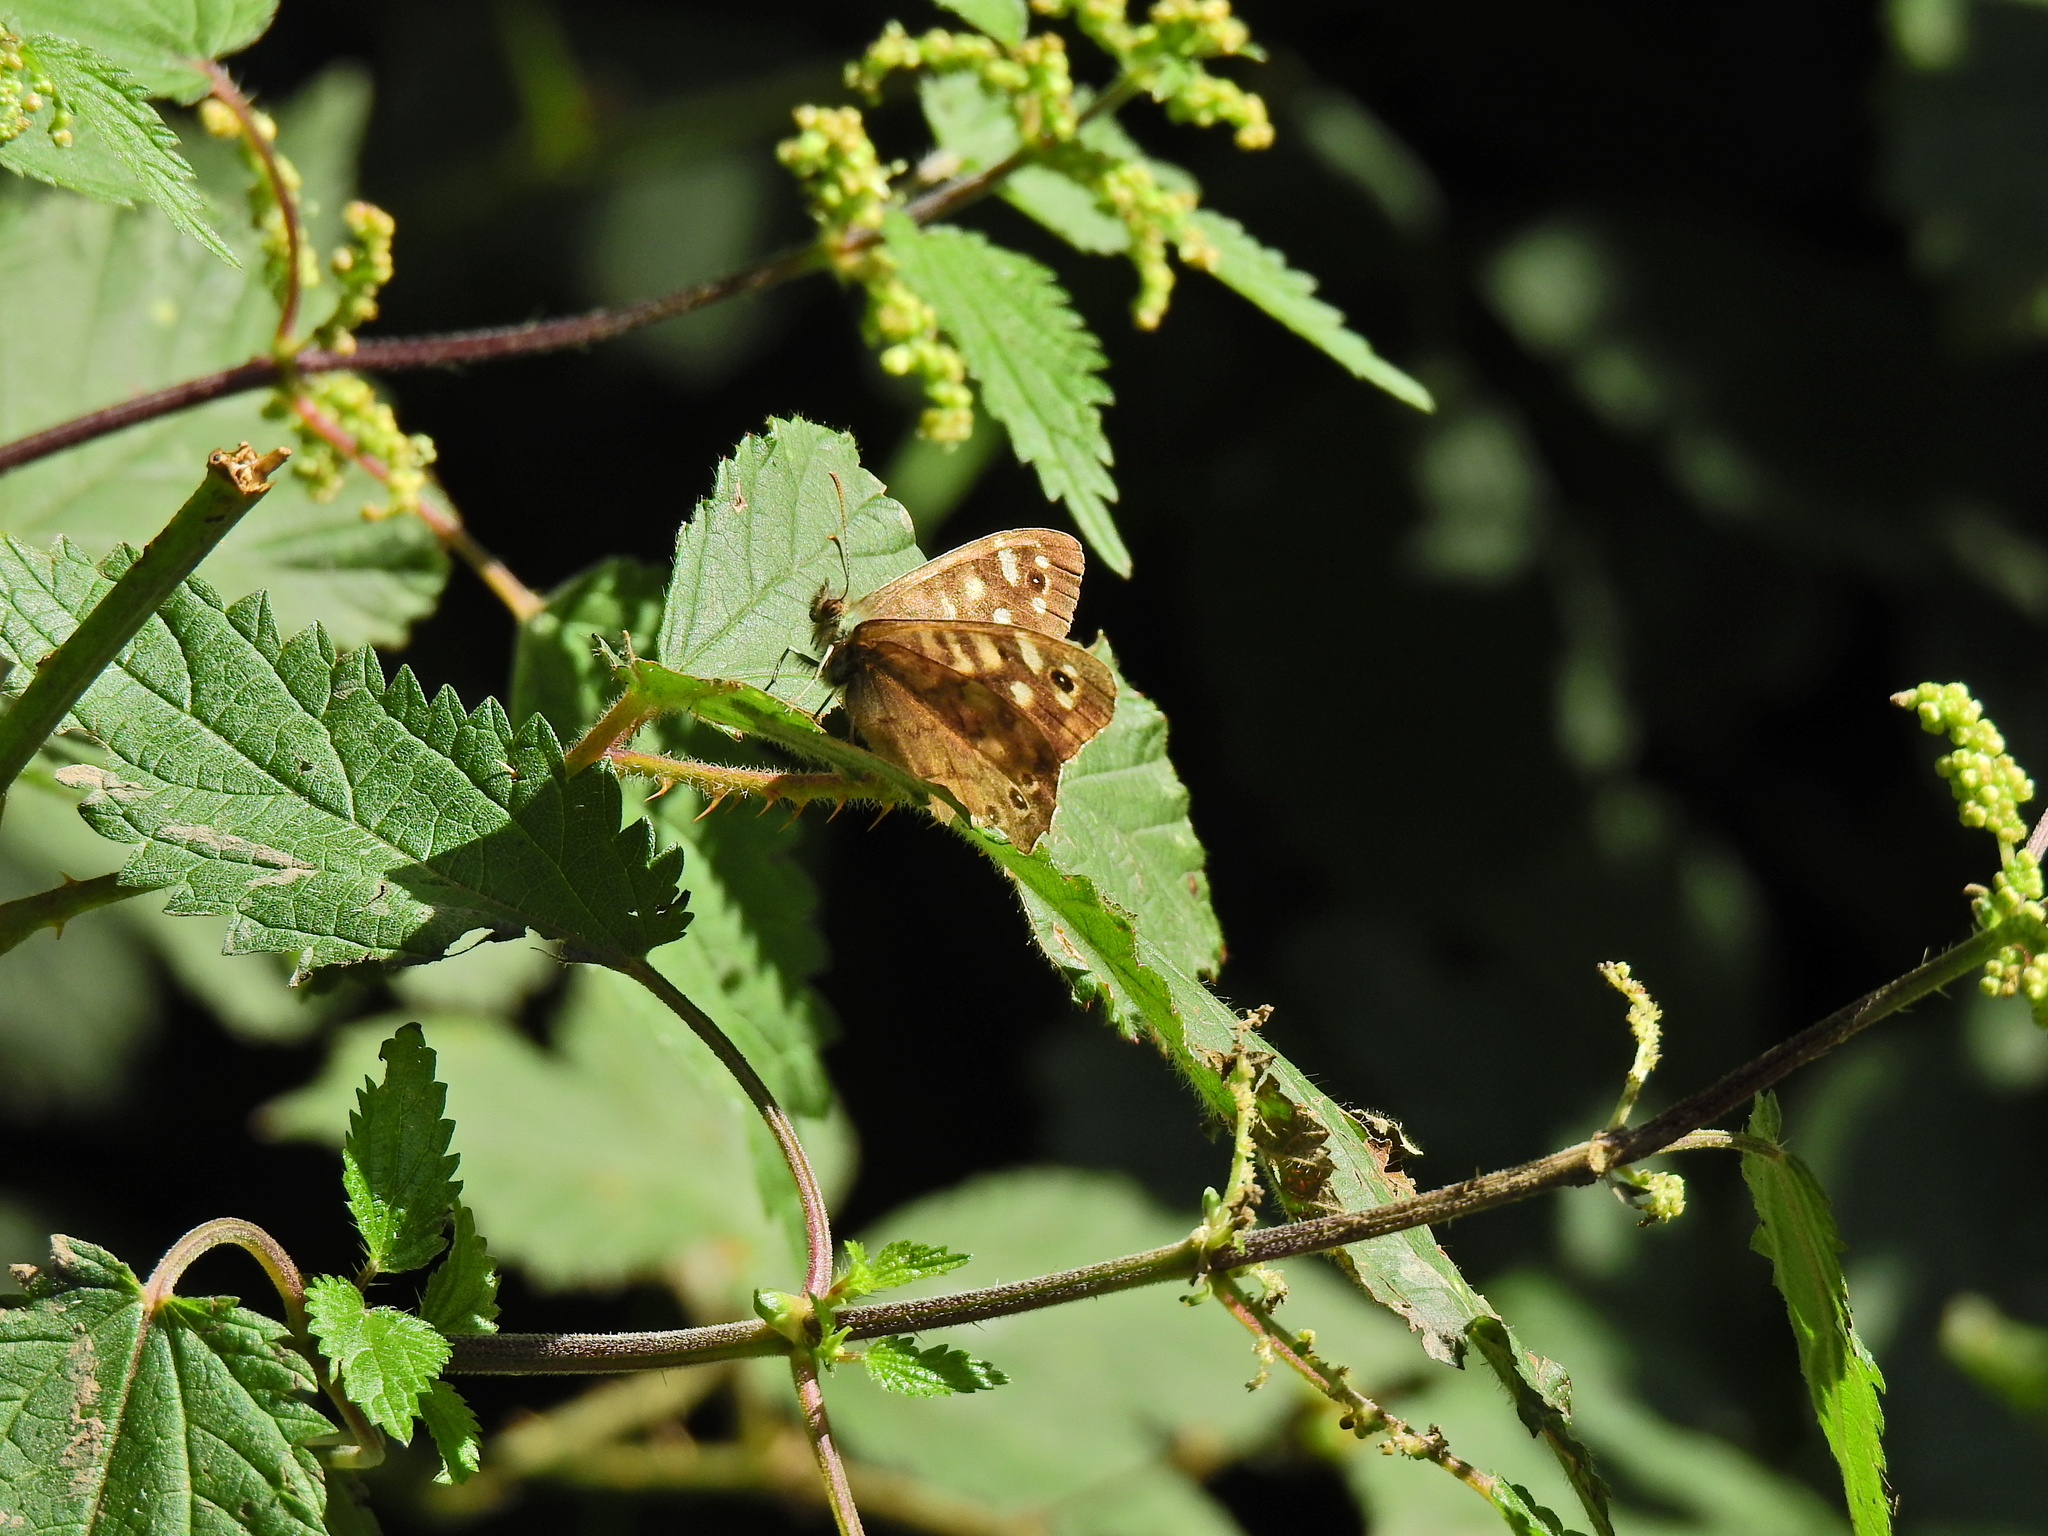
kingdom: Animalia
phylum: Arthropoda
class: Insecta
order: Lepidoptera
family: Nymphalidae
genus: Pararge
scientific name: Pararge aegeria
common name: Speckled wood
